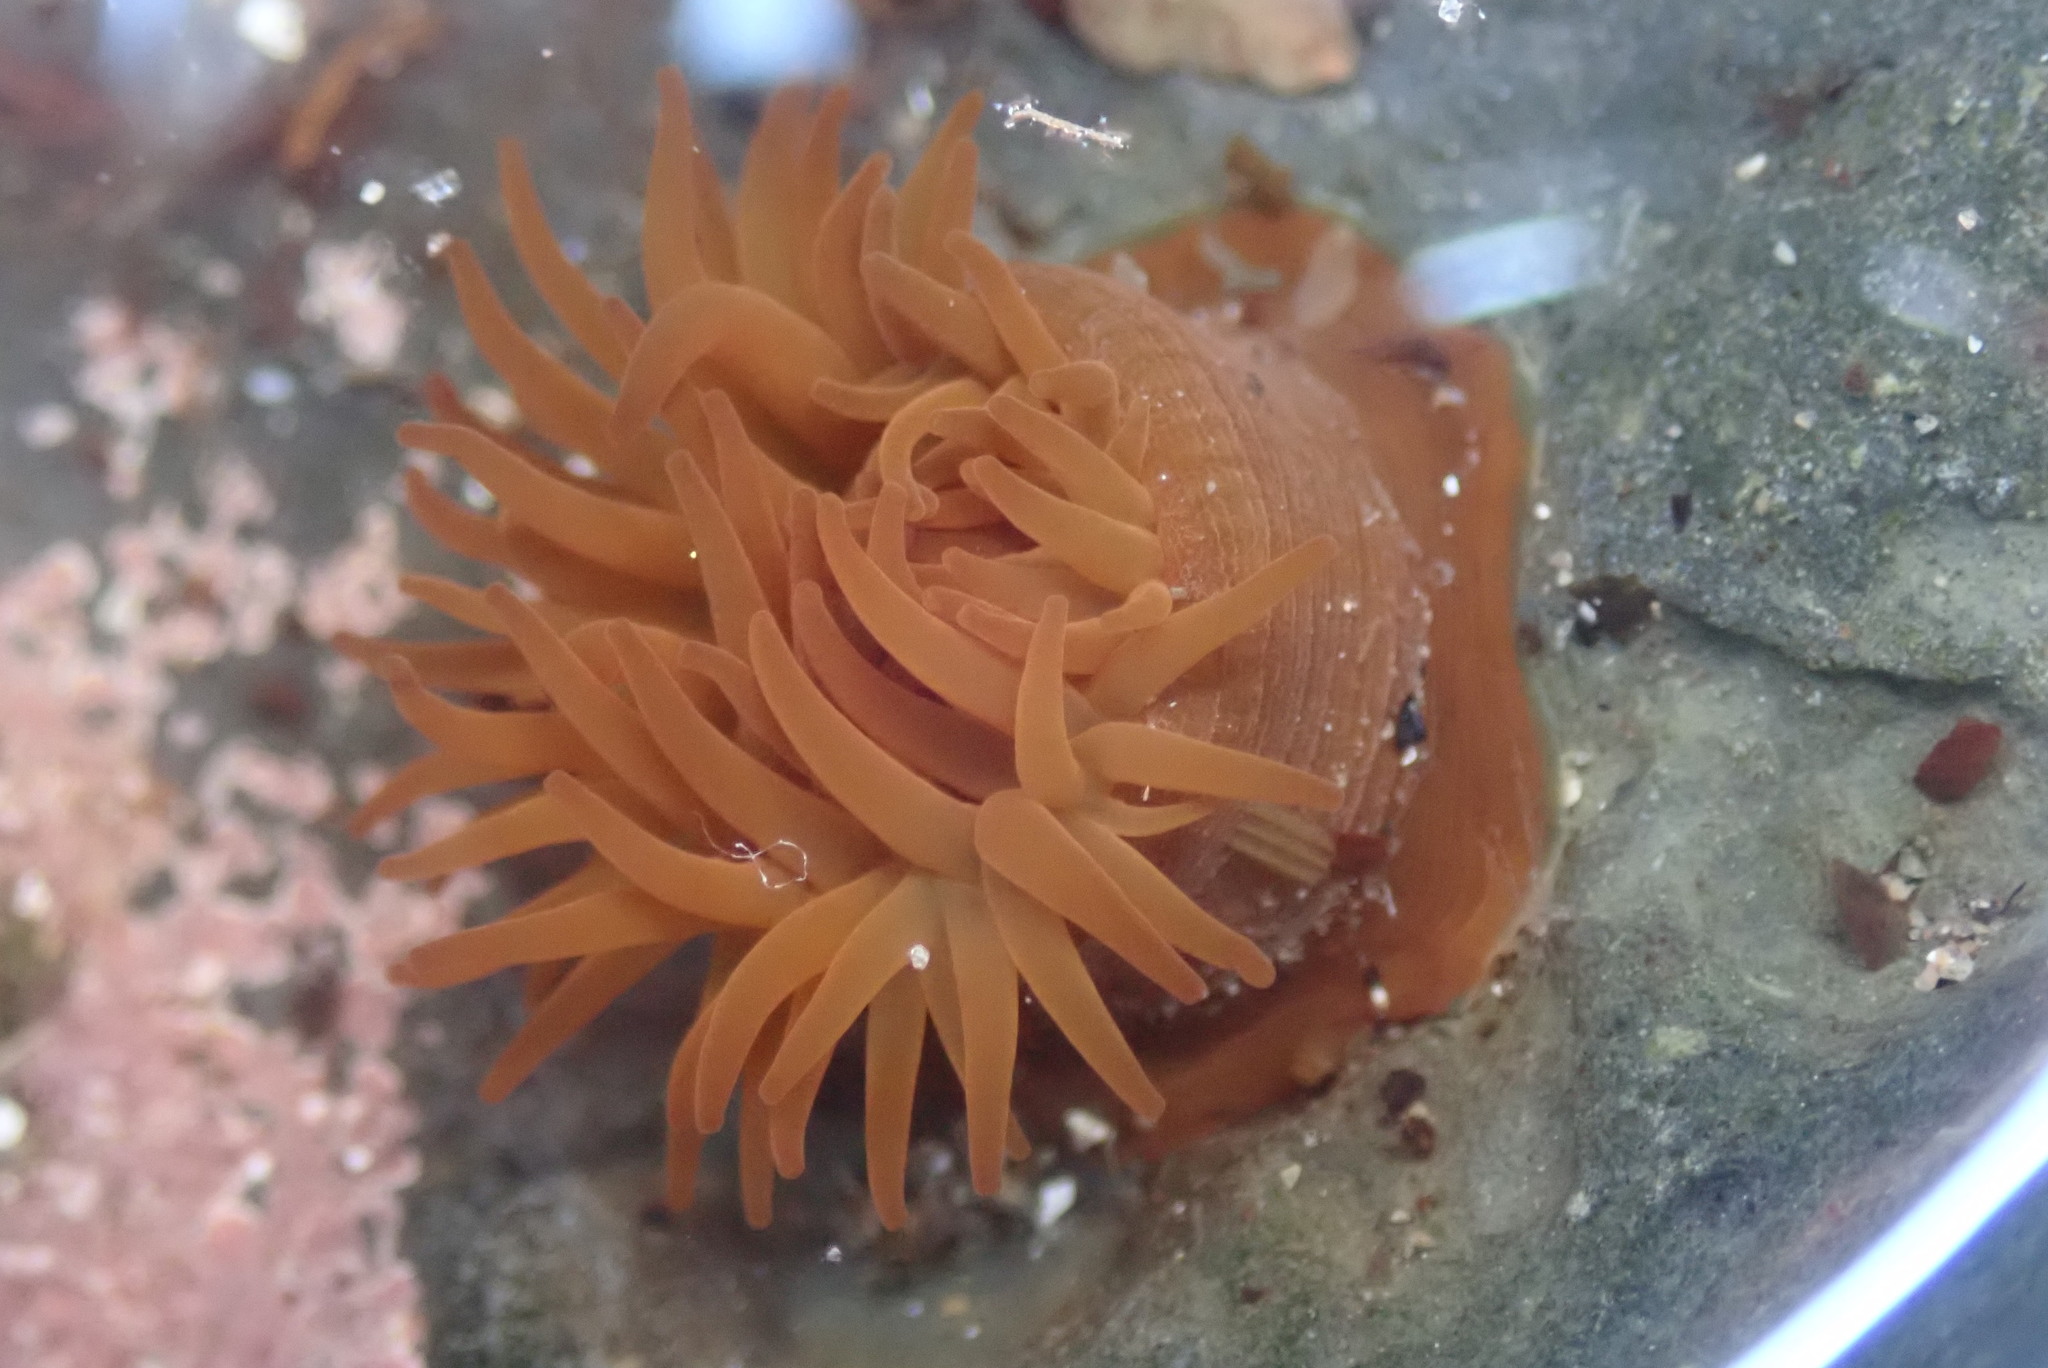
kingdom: Animalia
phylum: Cnidaria
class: Anthozoa
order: Actiniaria
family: Actiniidae
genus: Actinia
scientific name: Actinia equina
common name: Beadlet anemone
